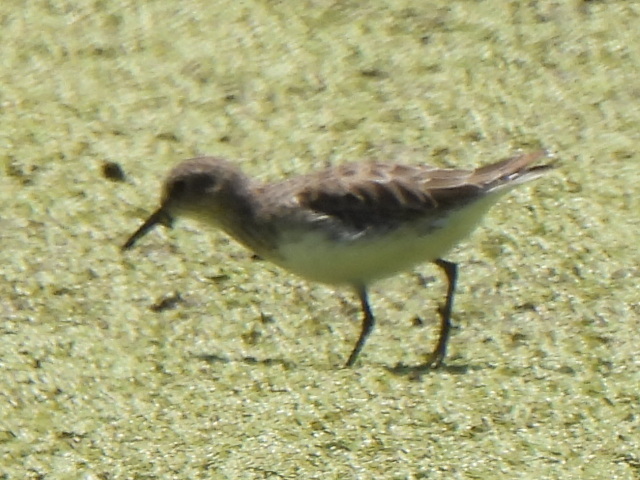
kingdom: Animalia
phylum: Chordata
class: Aves
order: Charadriiformes
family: Scolopacidae
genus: Calidris
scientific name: Calidris minutilla
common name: Least sandpiper
